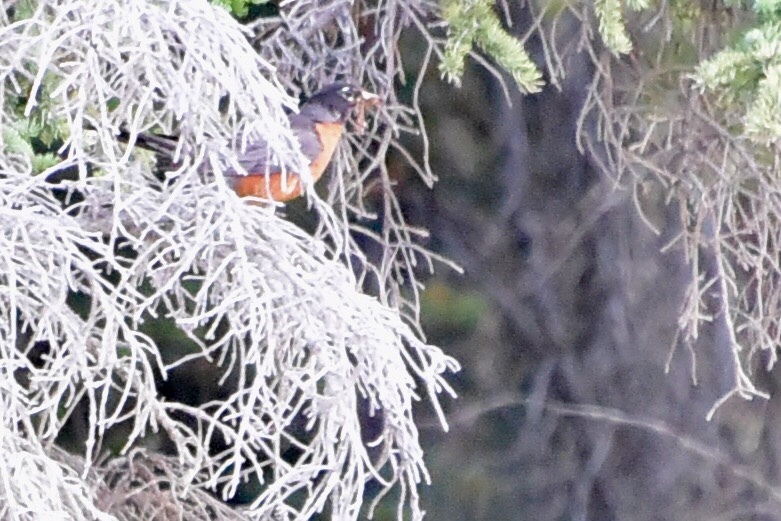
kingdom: Animalia
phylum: Chordata
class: Aves
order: Passeriformes
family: Turdidae
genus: Turdus
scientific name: Turdus migratorius
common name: American robin
